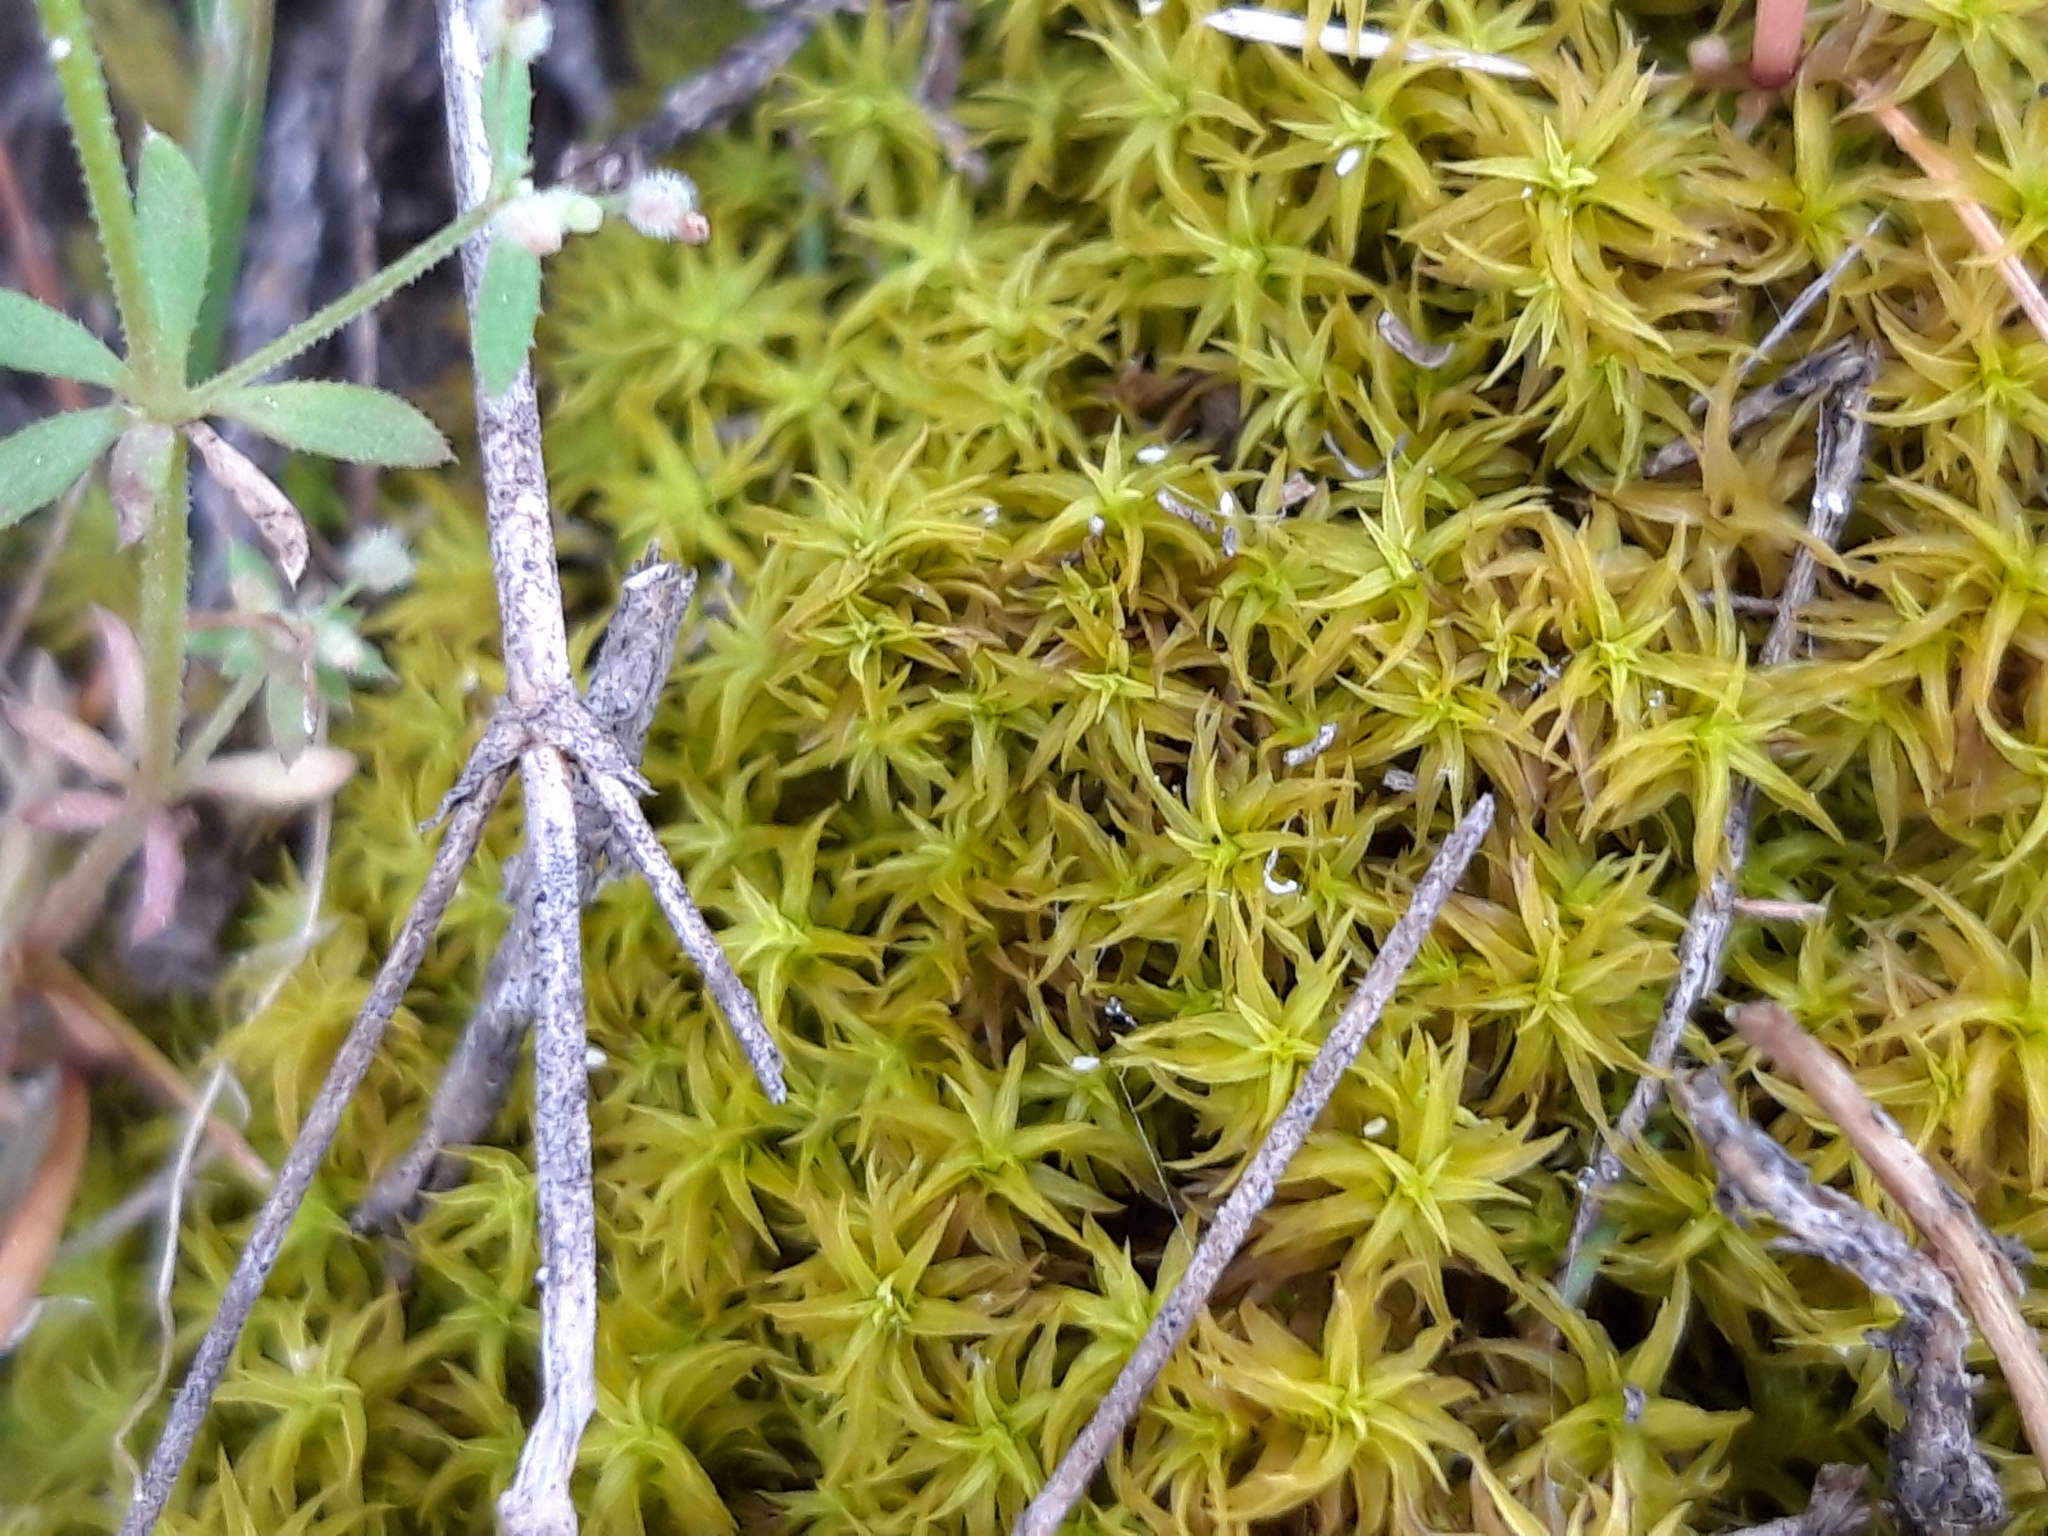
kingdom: Plantae
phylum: Bryophyta
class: Bryopsida
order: Pottiales
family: Pottiaceae
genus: Pleurochaete
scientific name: Pleurochaete squarrosa
